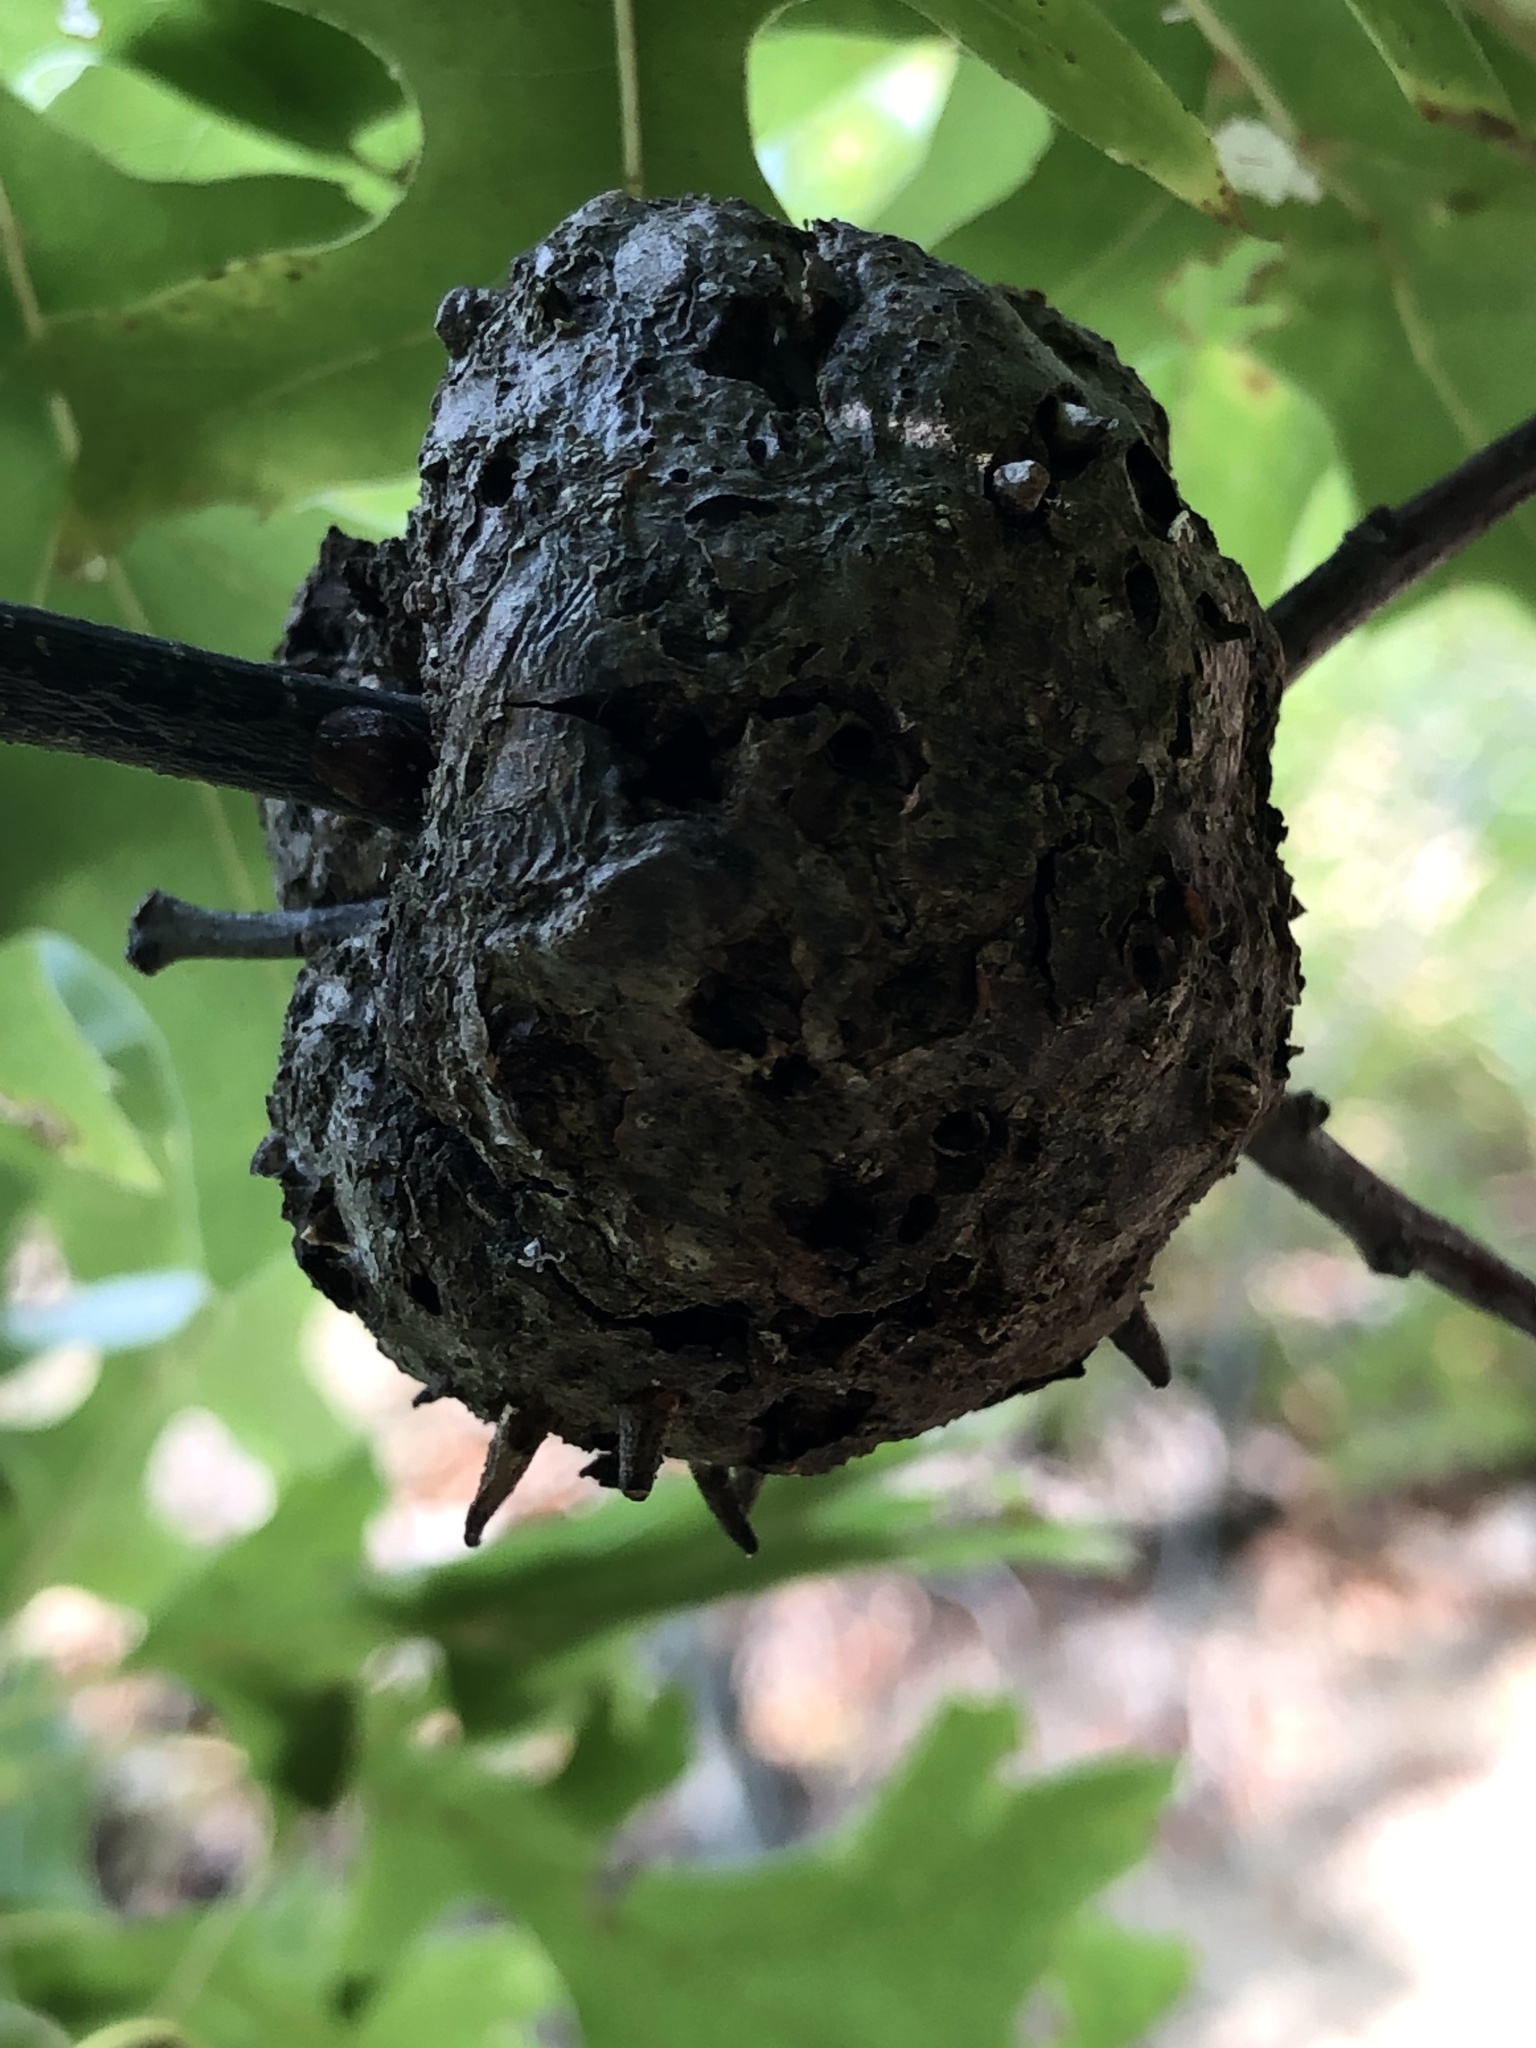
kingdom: Animalia
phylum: Arthropoda
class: Insecta
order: Hymenoptera
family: Cynipidae
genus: Callirhytis
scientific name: Callirhytis
